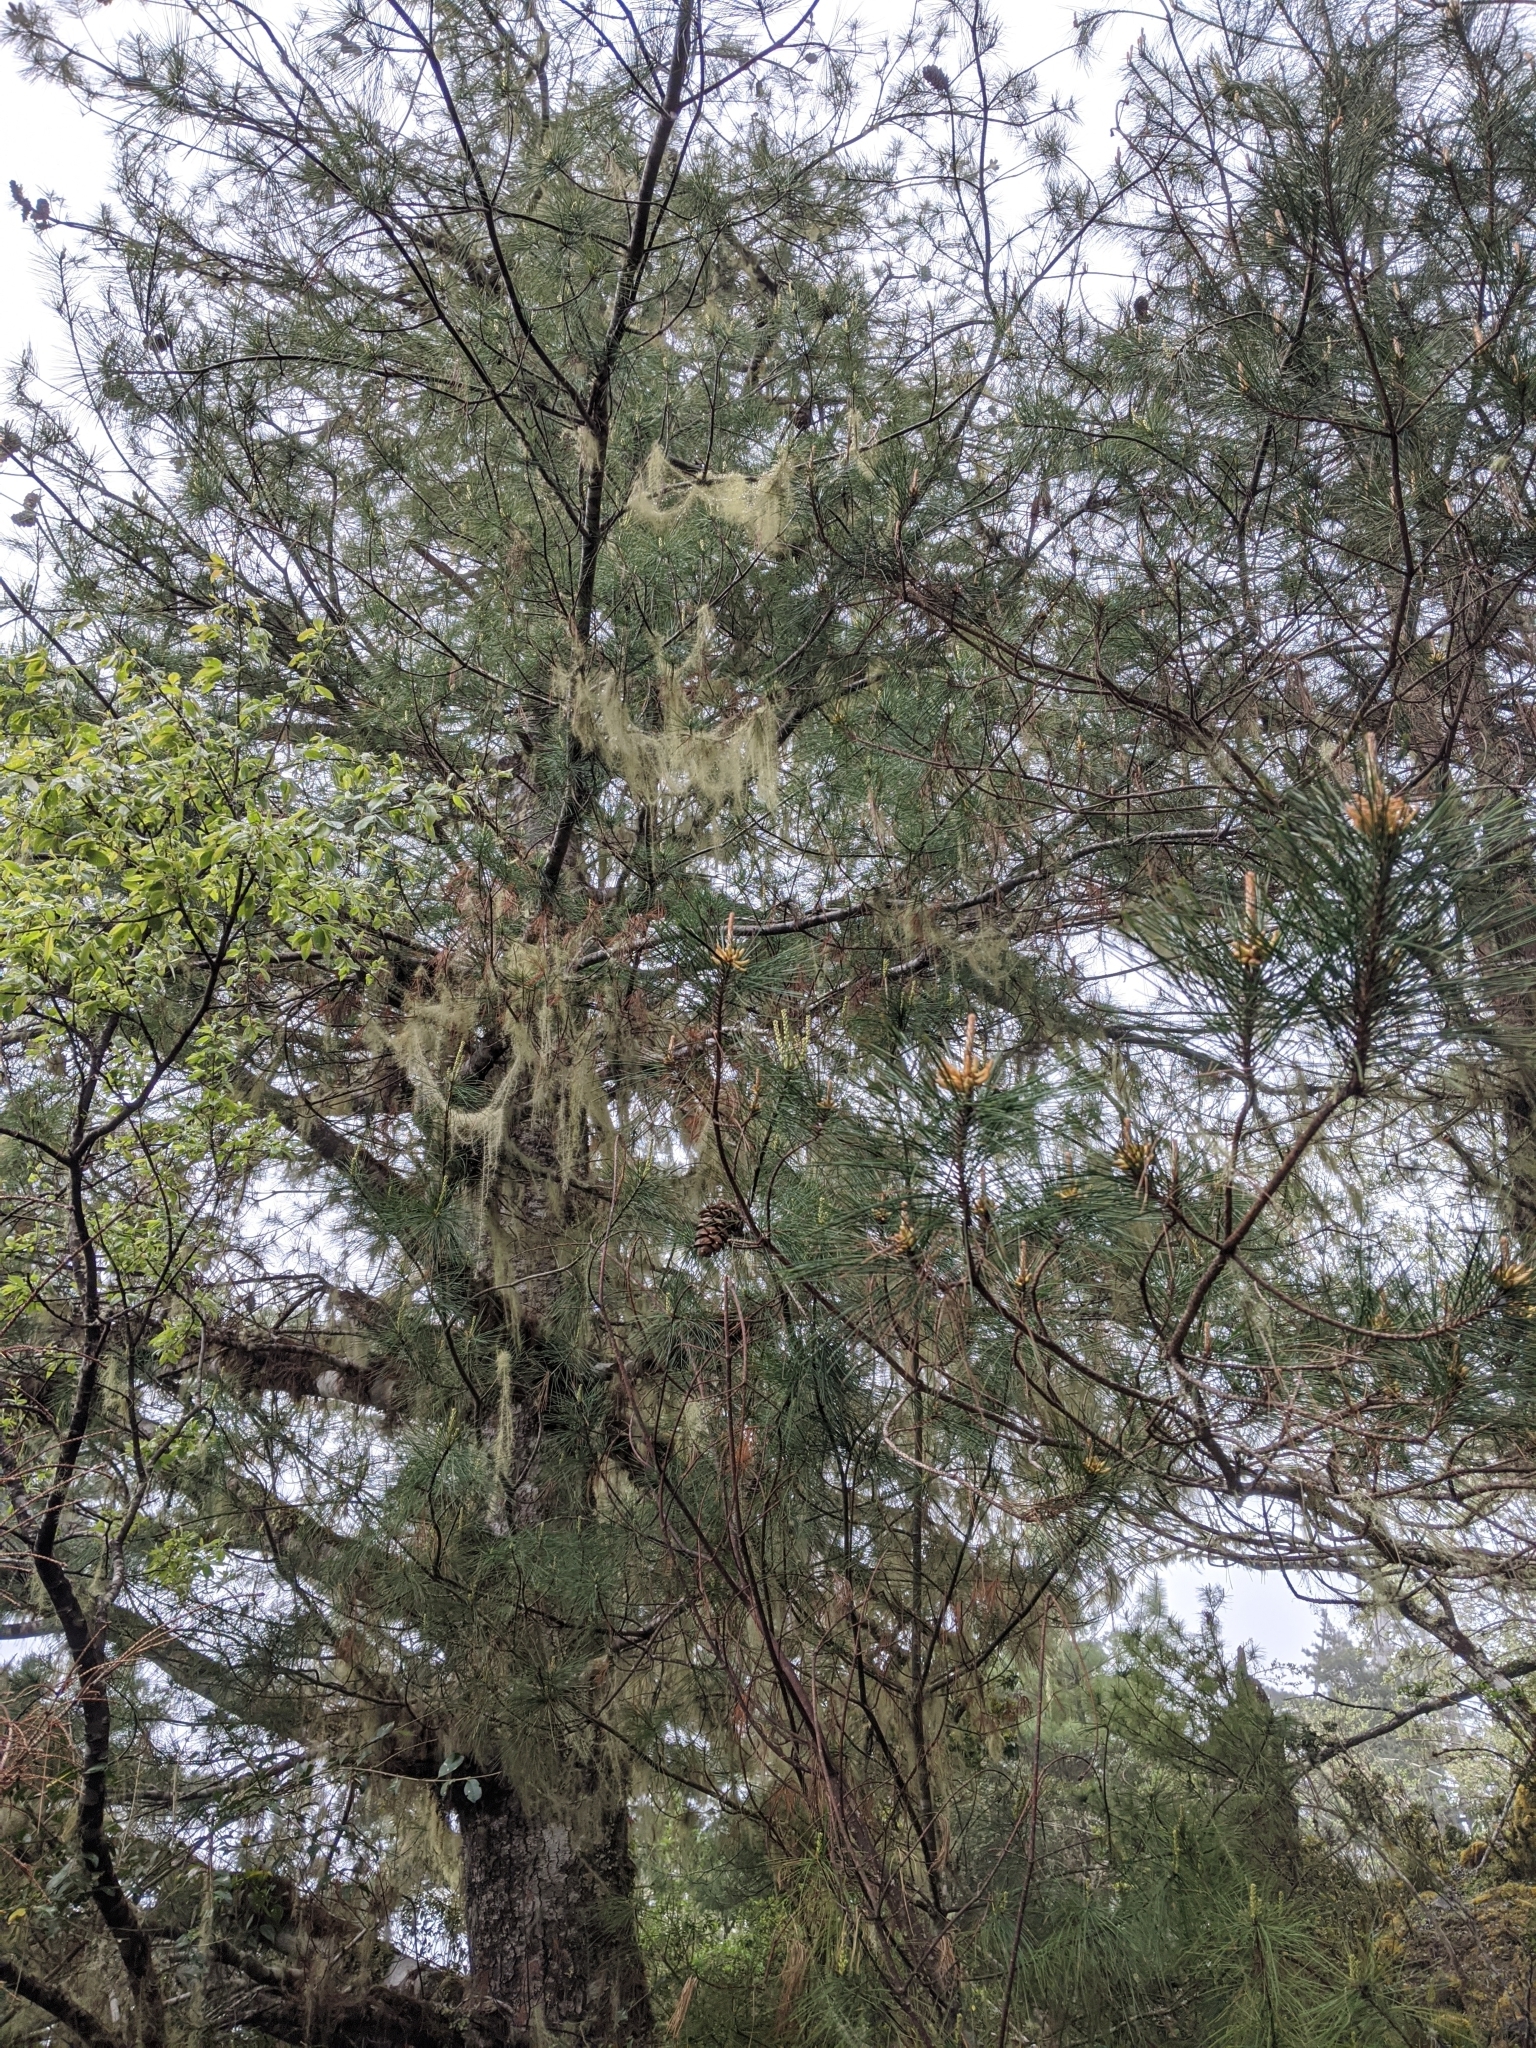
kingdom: Plantae
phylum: Tracheophyta
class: Pinopsida
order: Pinales
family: Pinaceae
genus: Pinus
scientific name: Pinus morrisonicola
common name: Taiwan white pine
